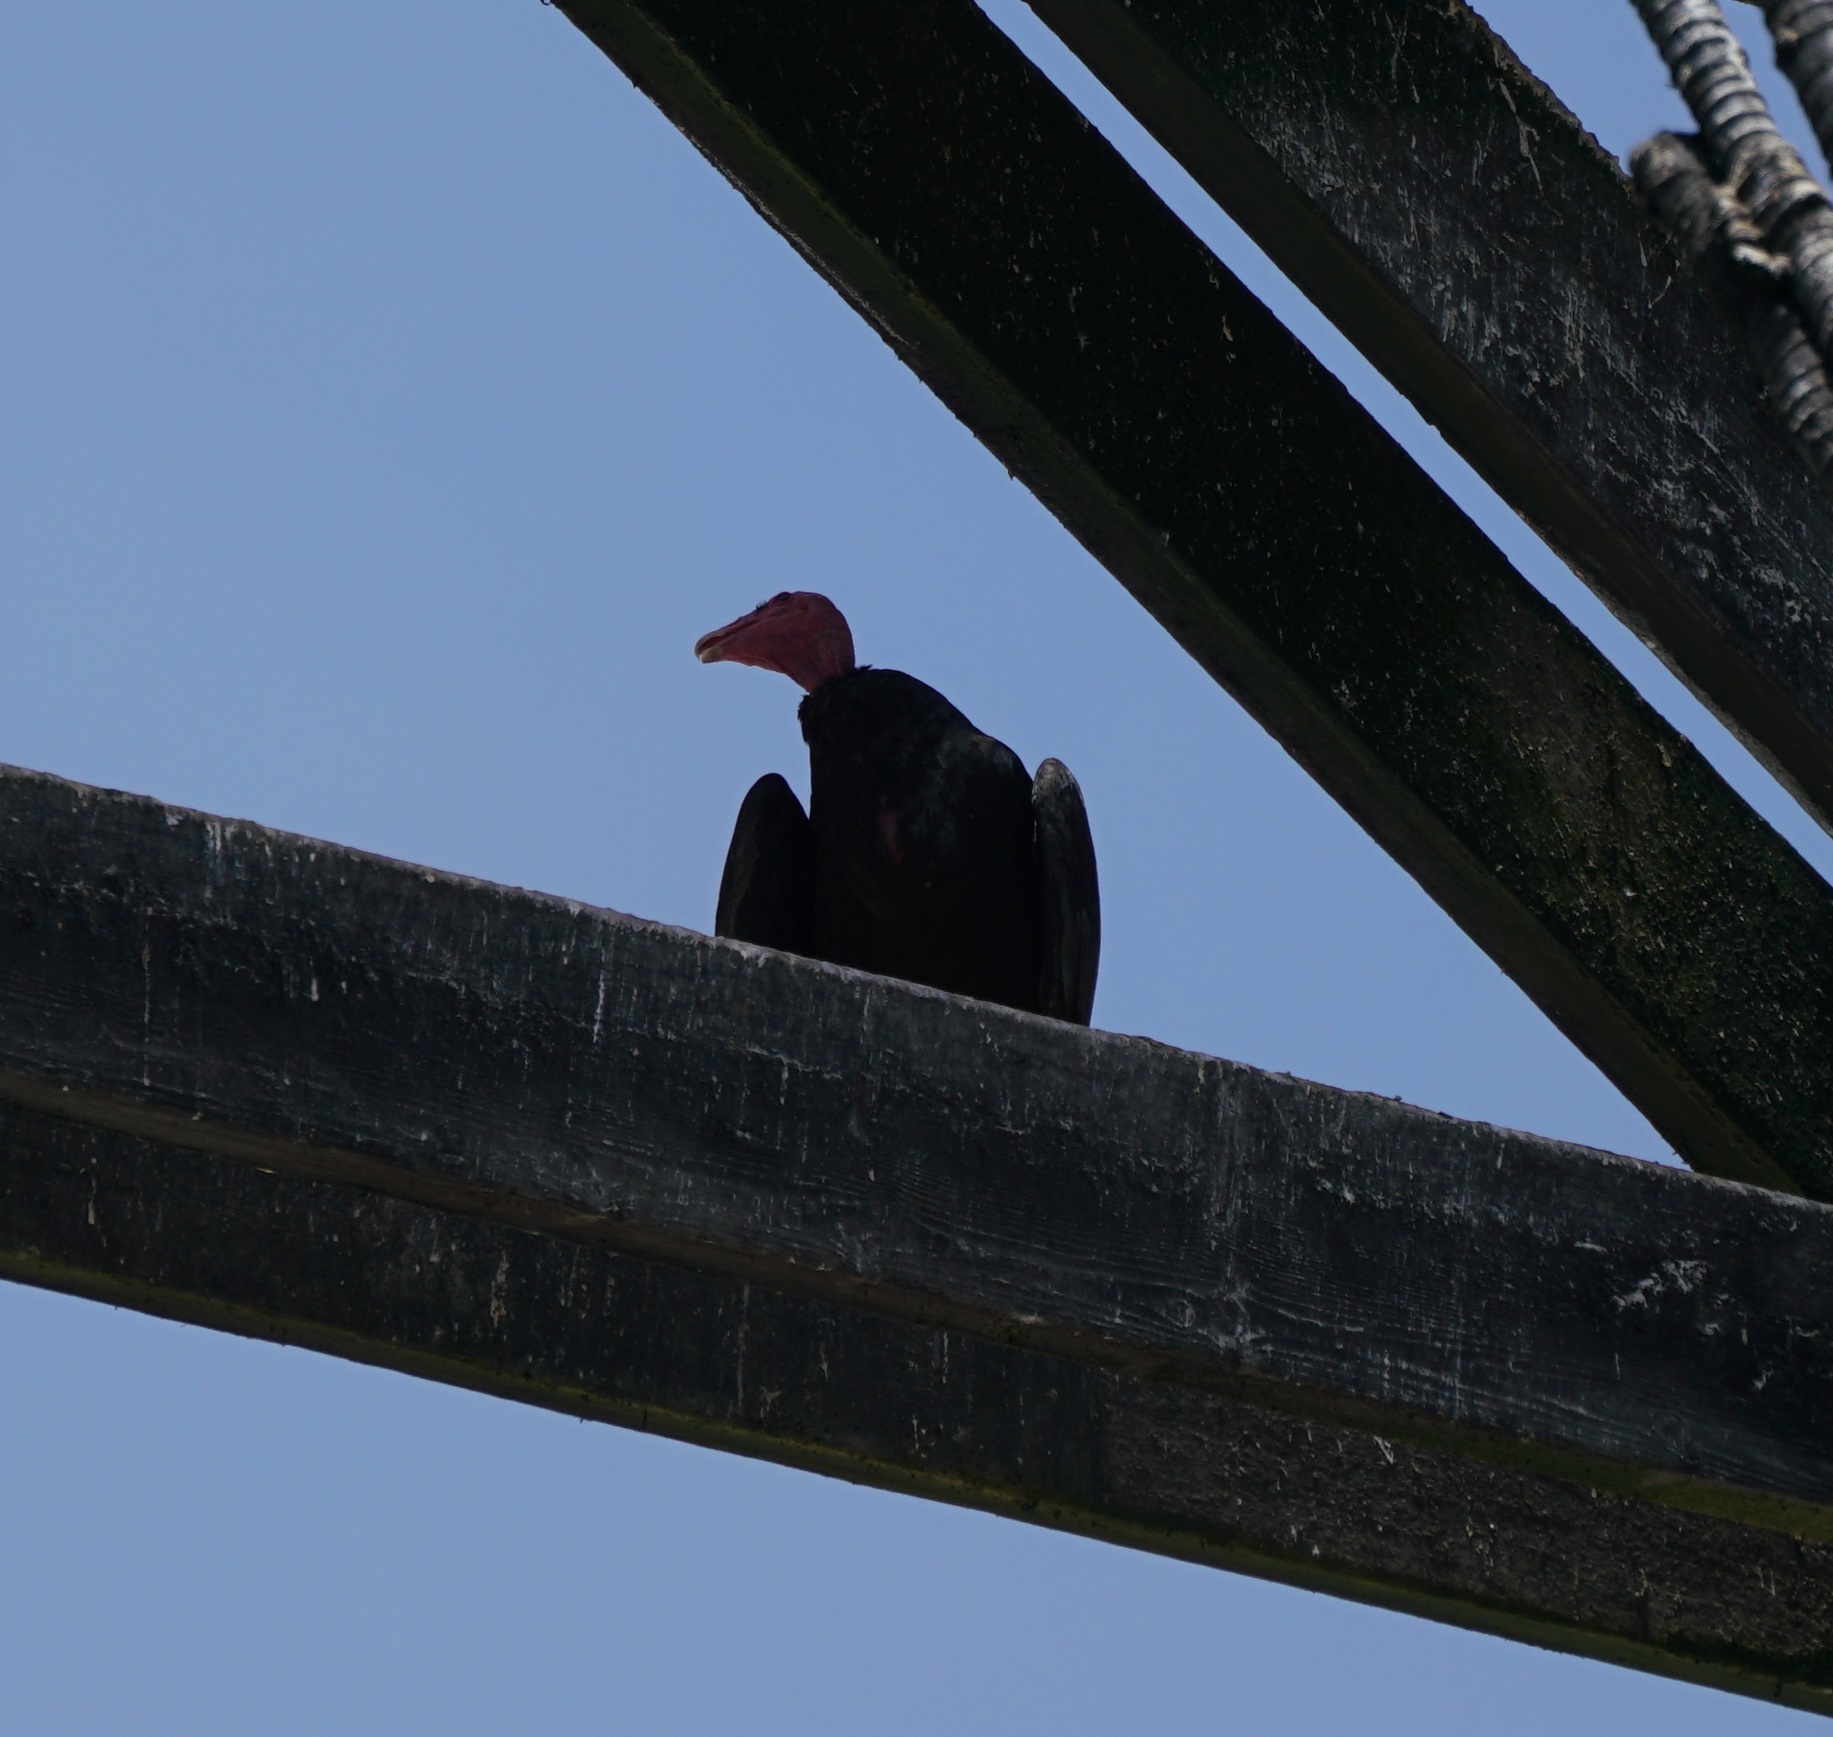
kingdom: Animalia
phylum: Chordata
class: Aves
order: Accipitriformes
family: Cathartidae
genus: Cathartes
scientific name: Cathartes aura
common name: Turkey vulture
